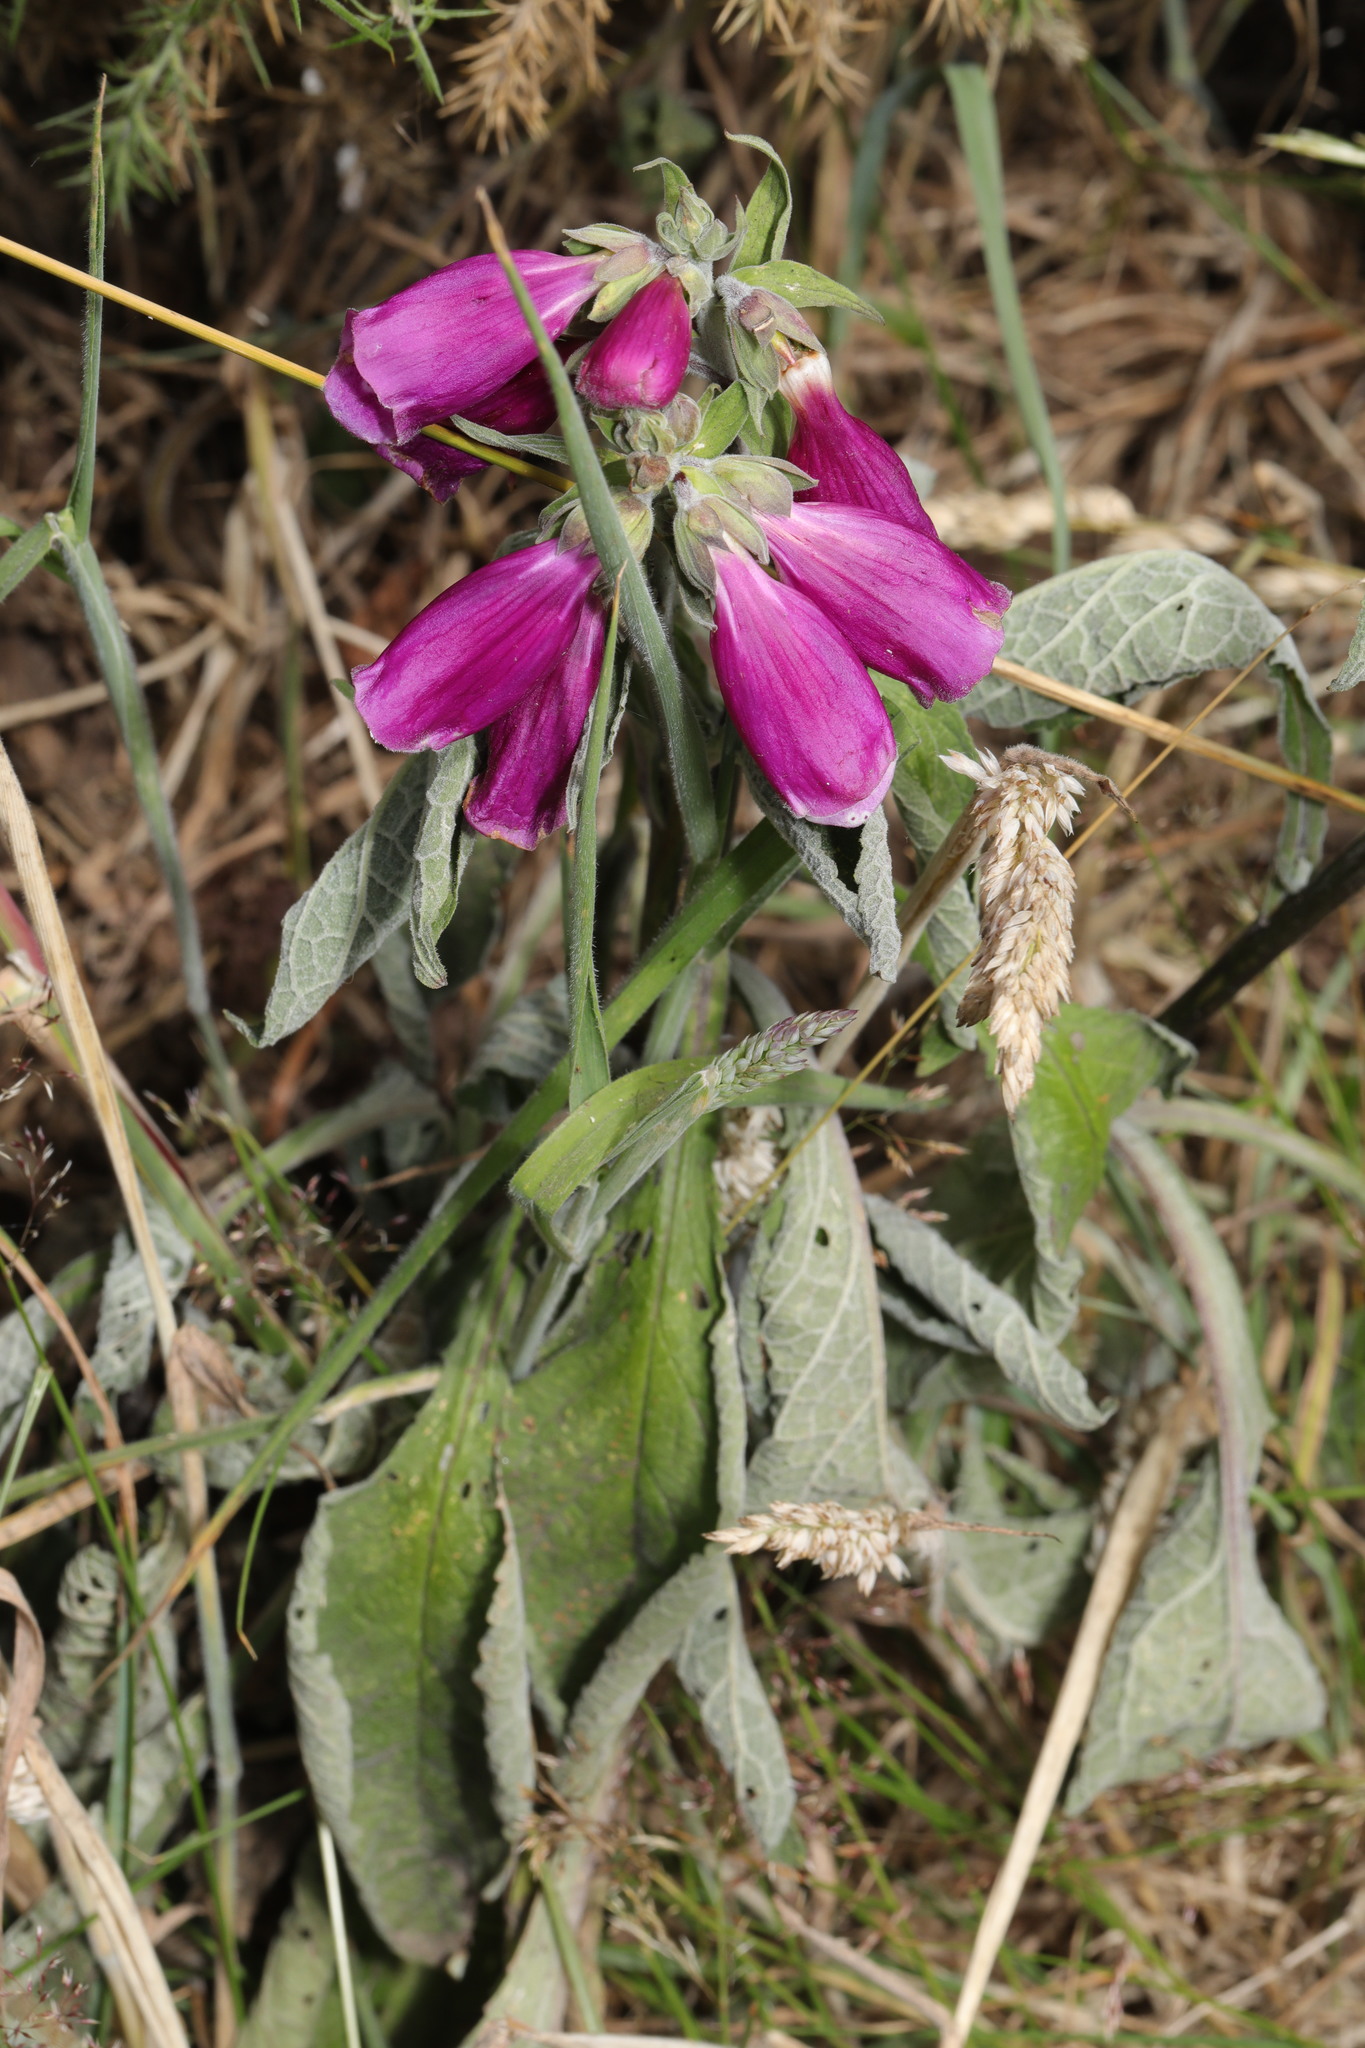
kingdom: Plantae
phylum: Tracheophyta
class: Magnoliopsida
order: Lamiales
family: Plantaginaceae
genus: Digitalis
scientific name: Digitalis purpurea
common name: Foxglove
